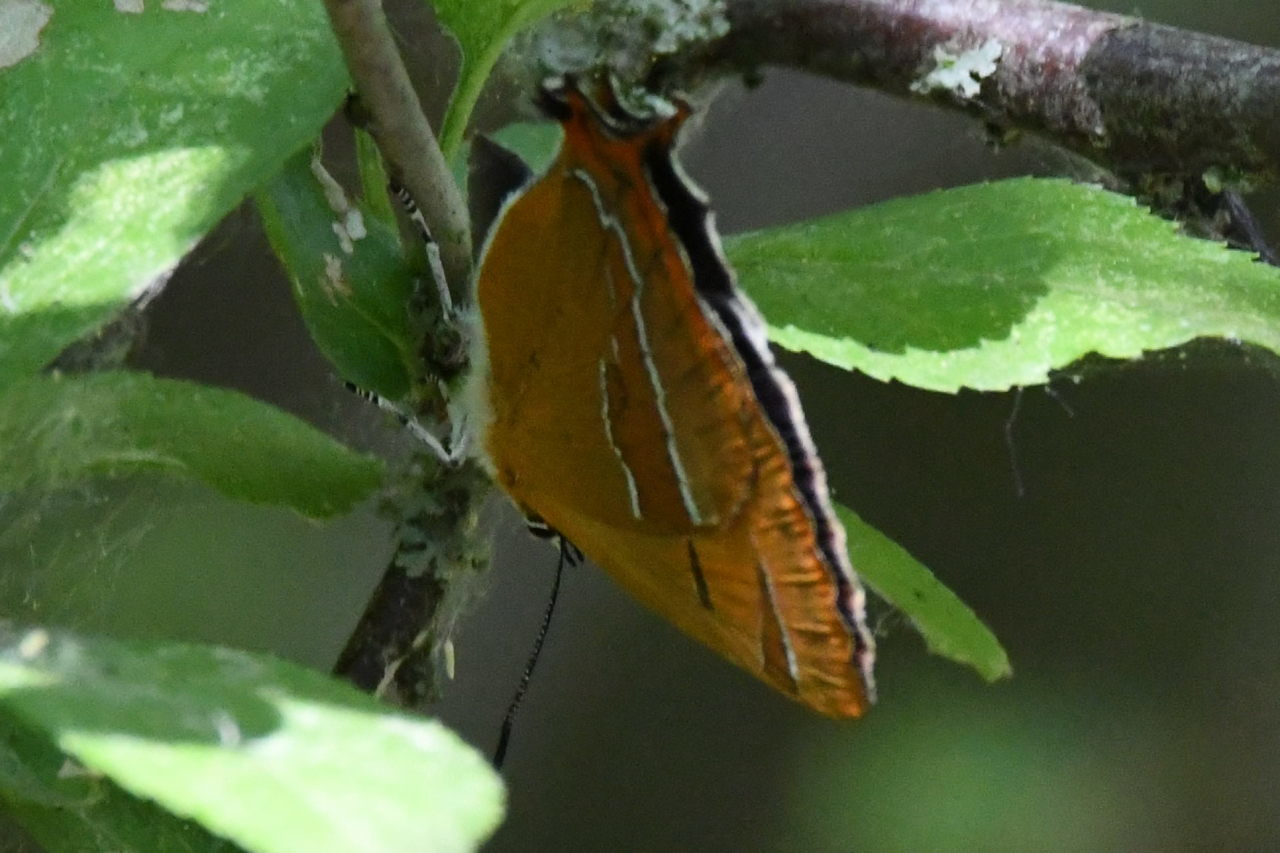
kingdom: Animalia
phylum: Arthropoda
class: Insecta
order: Lepidoptera
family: Lycaenidae
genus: Thecla
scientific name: Thecla betulae
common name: Brown hairstreak
